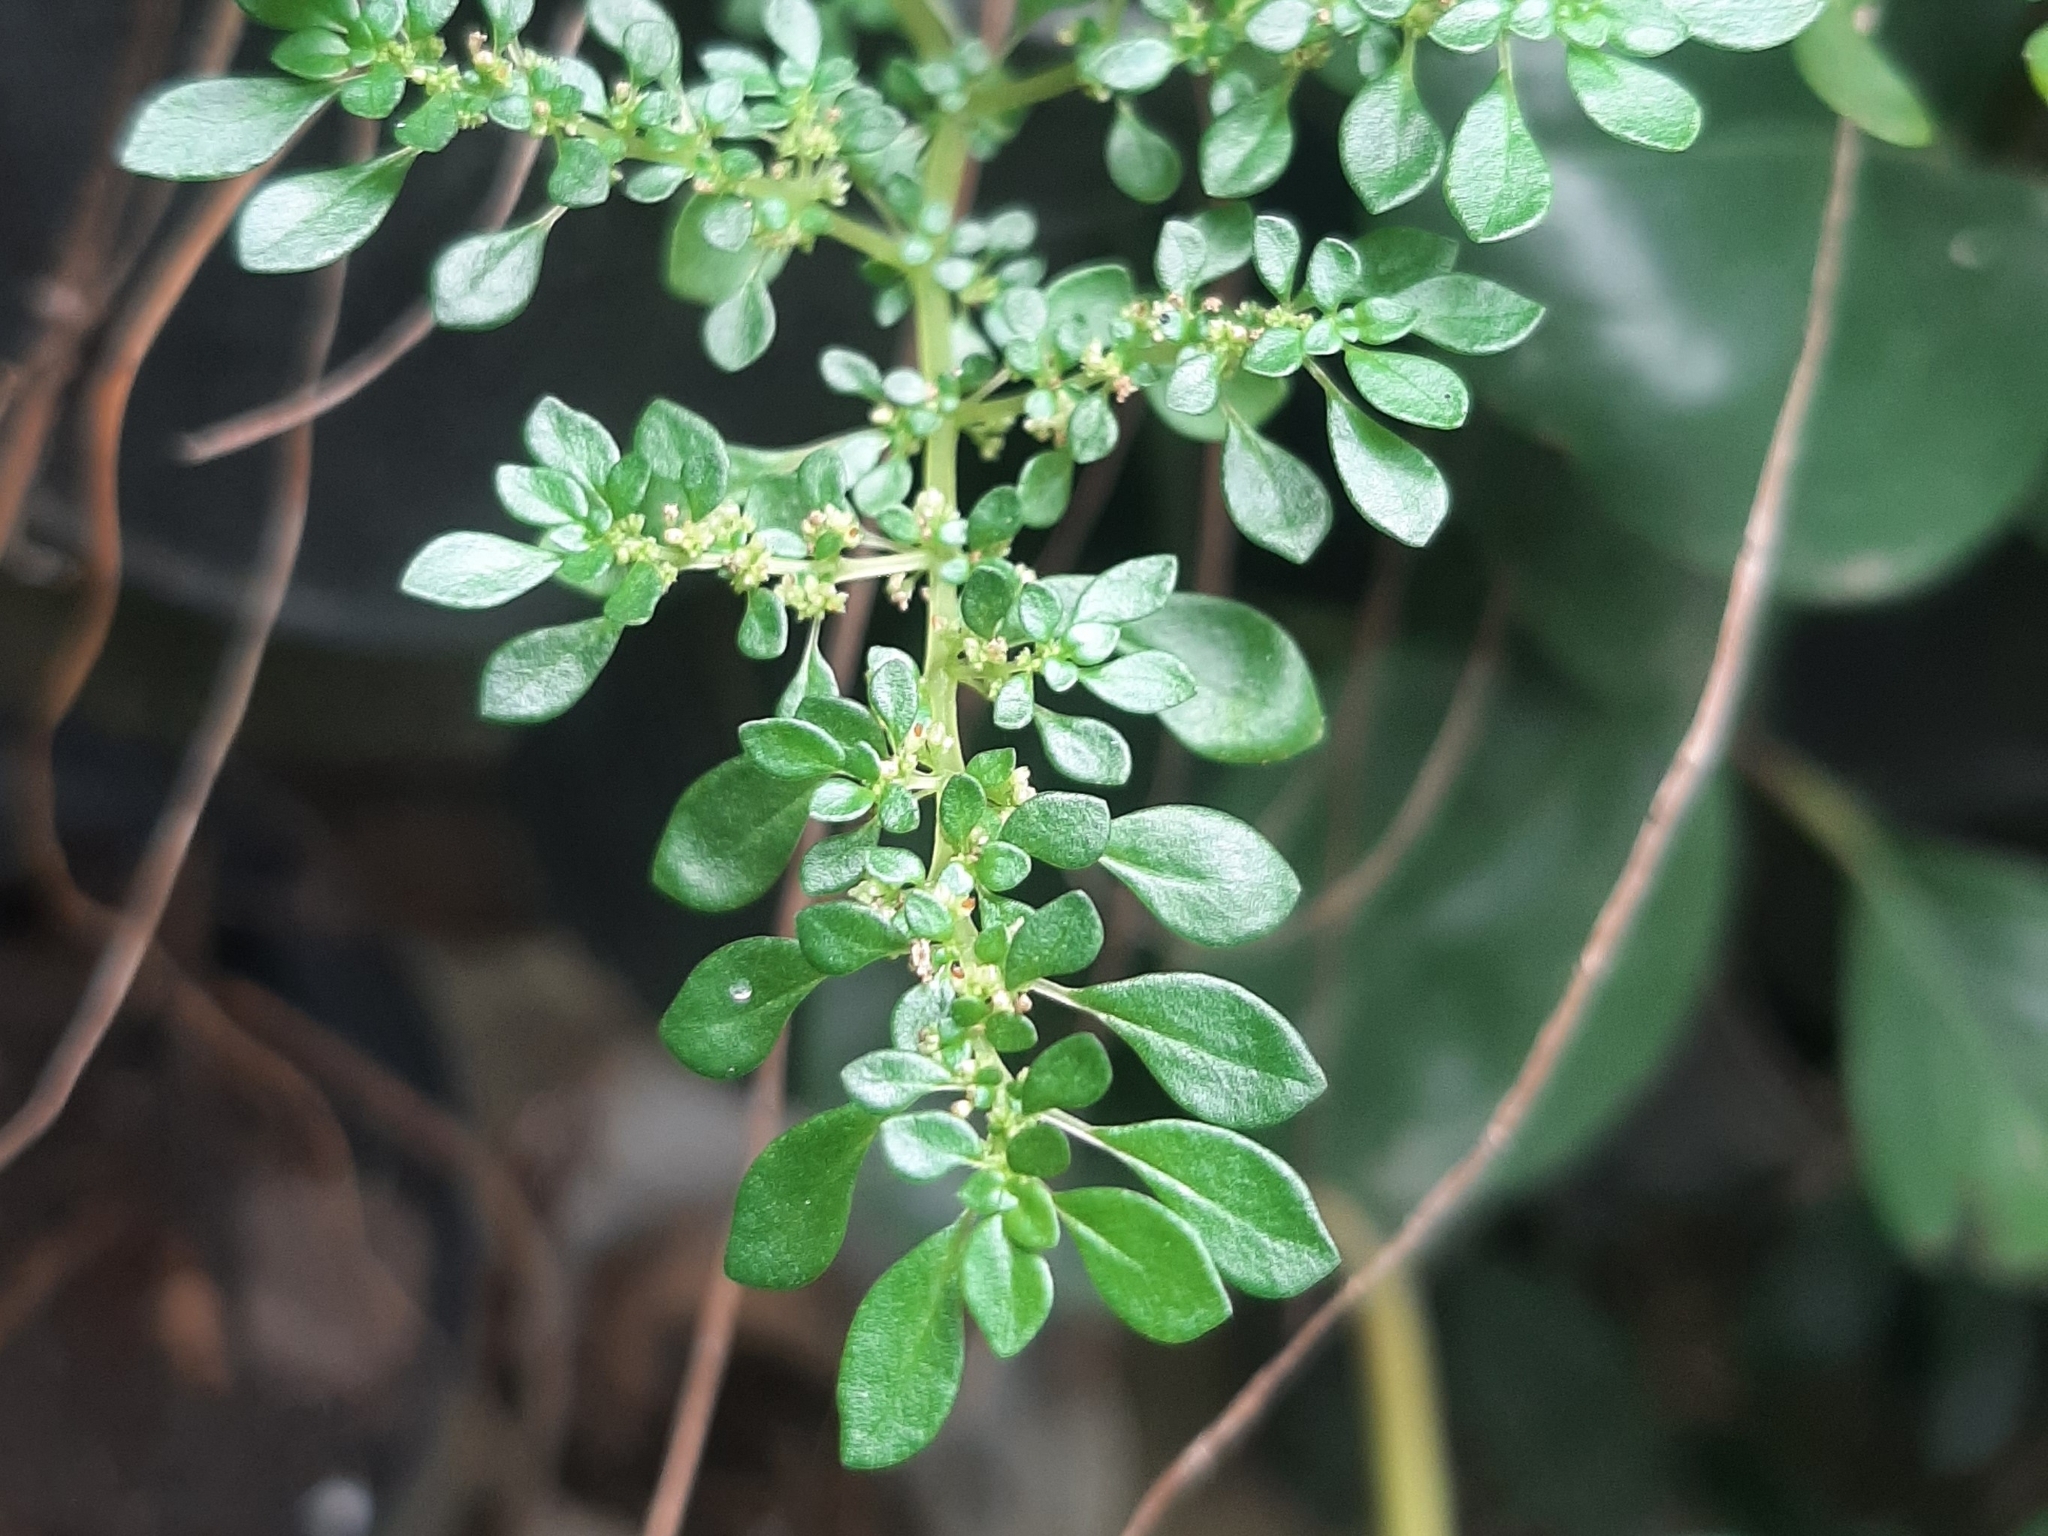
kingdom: Plantae
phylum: Tracheophyta
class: Magnoliopsida
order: Rosales
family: Urticaceae
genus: Pilea
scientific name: Pilea microphylla
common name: Artillery-plant
